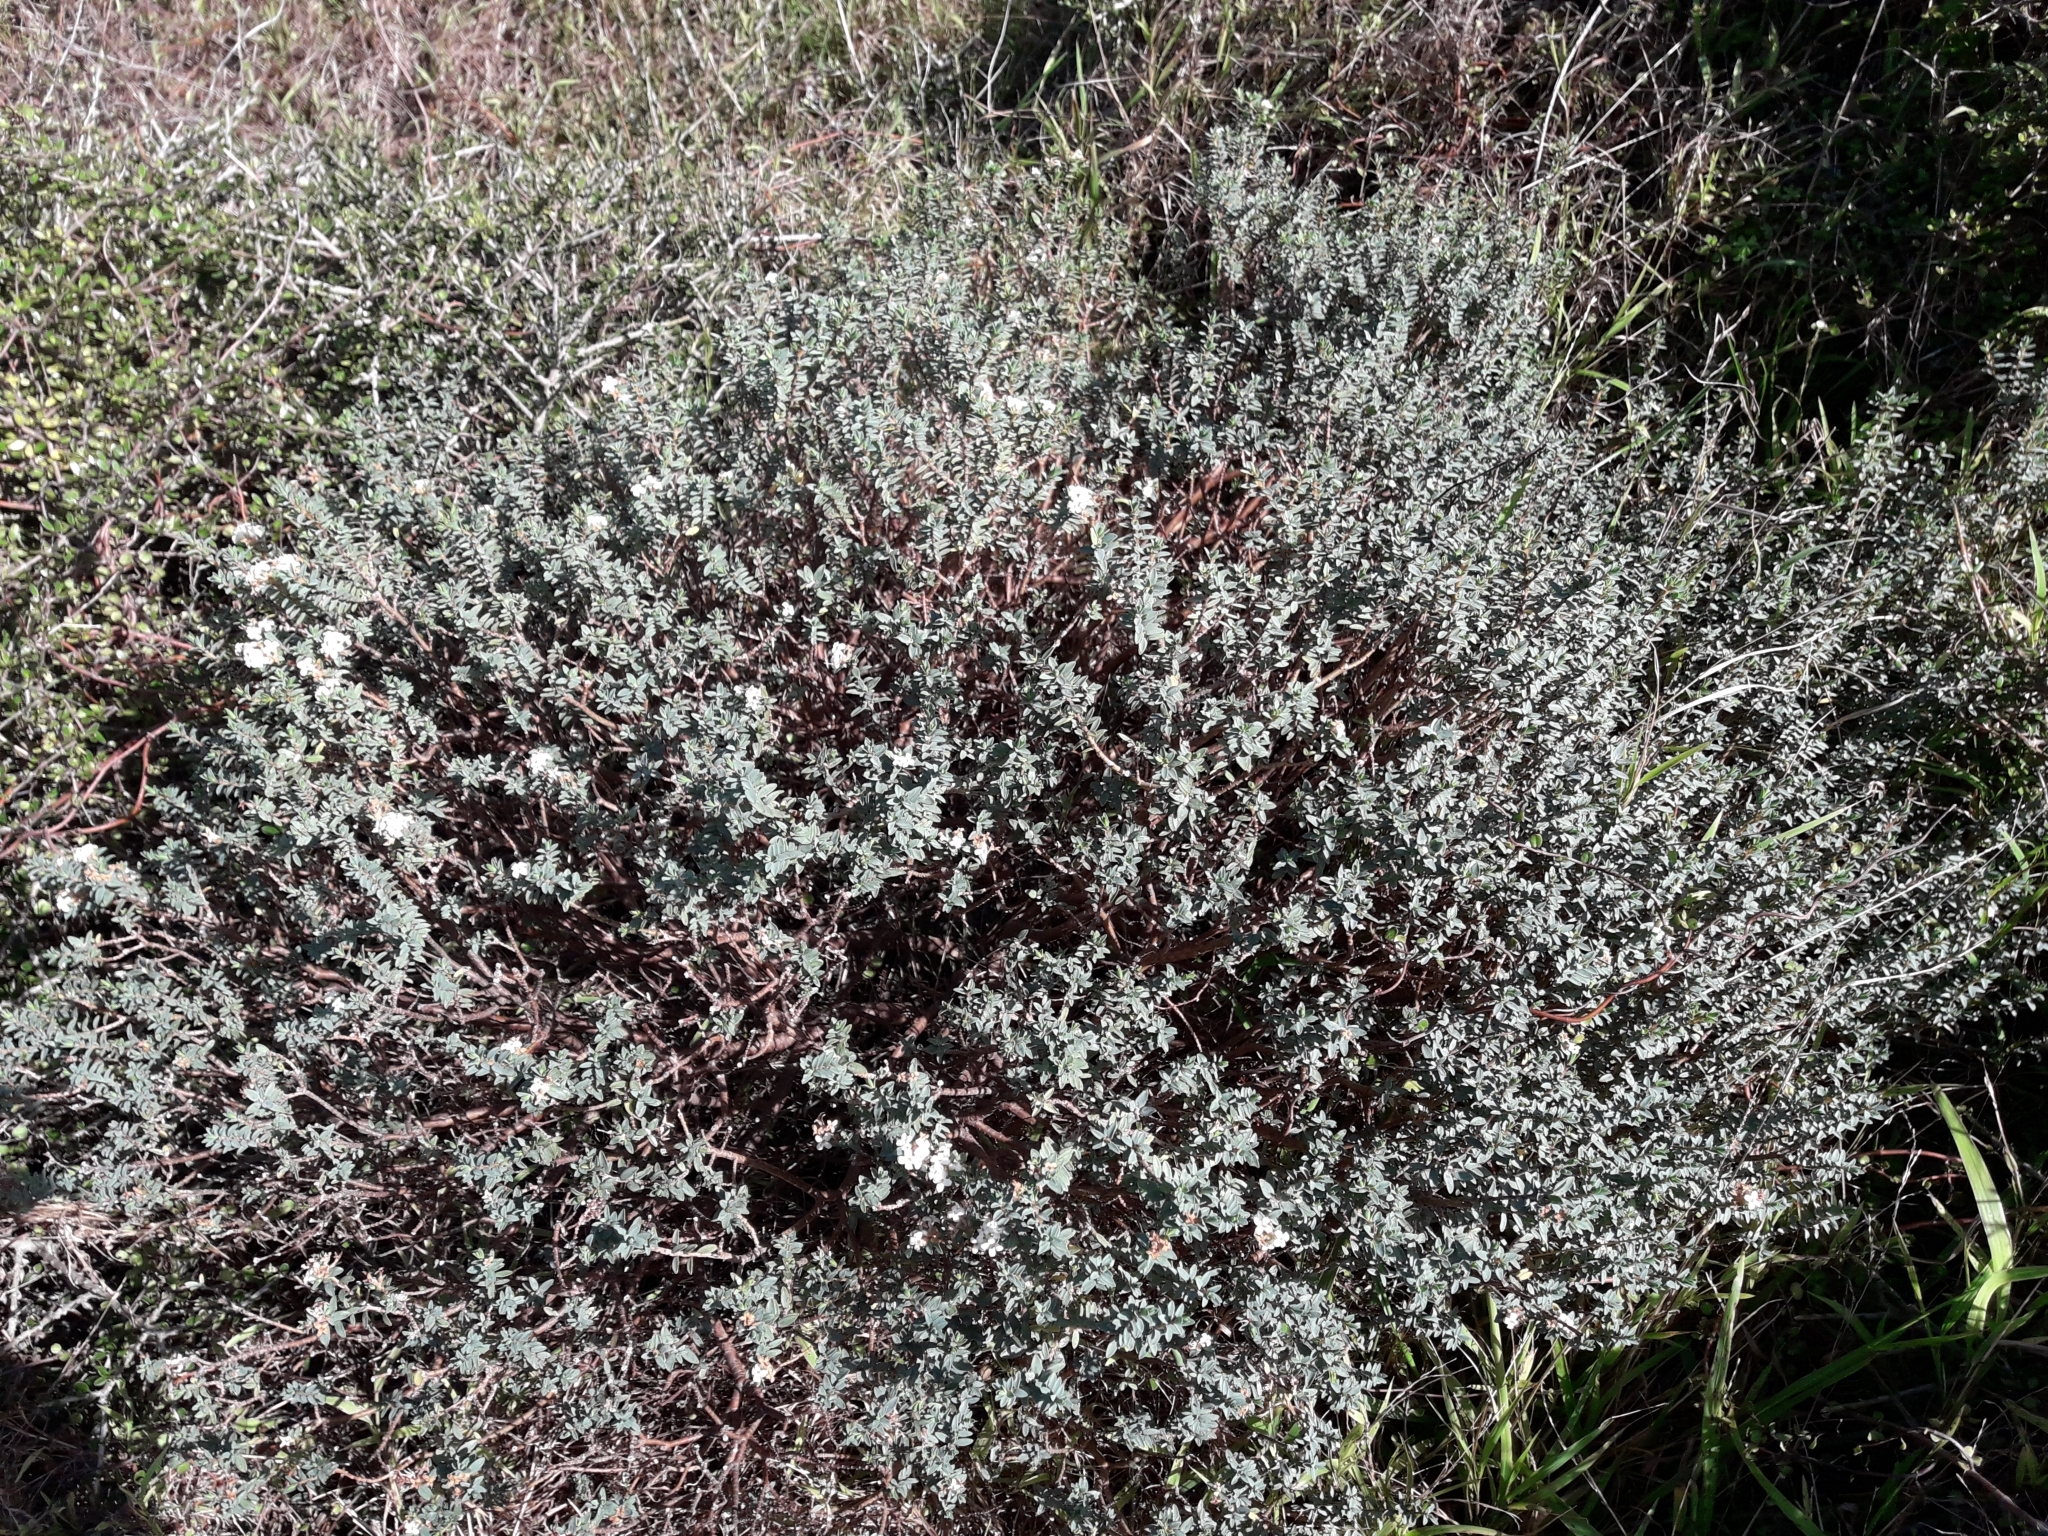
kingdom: Plantae
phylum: Tracheophyta
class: Magnoliopsida
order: Malvales
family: Thymelaeaceae
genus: Pimelea
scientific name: Pimelea prostrata
